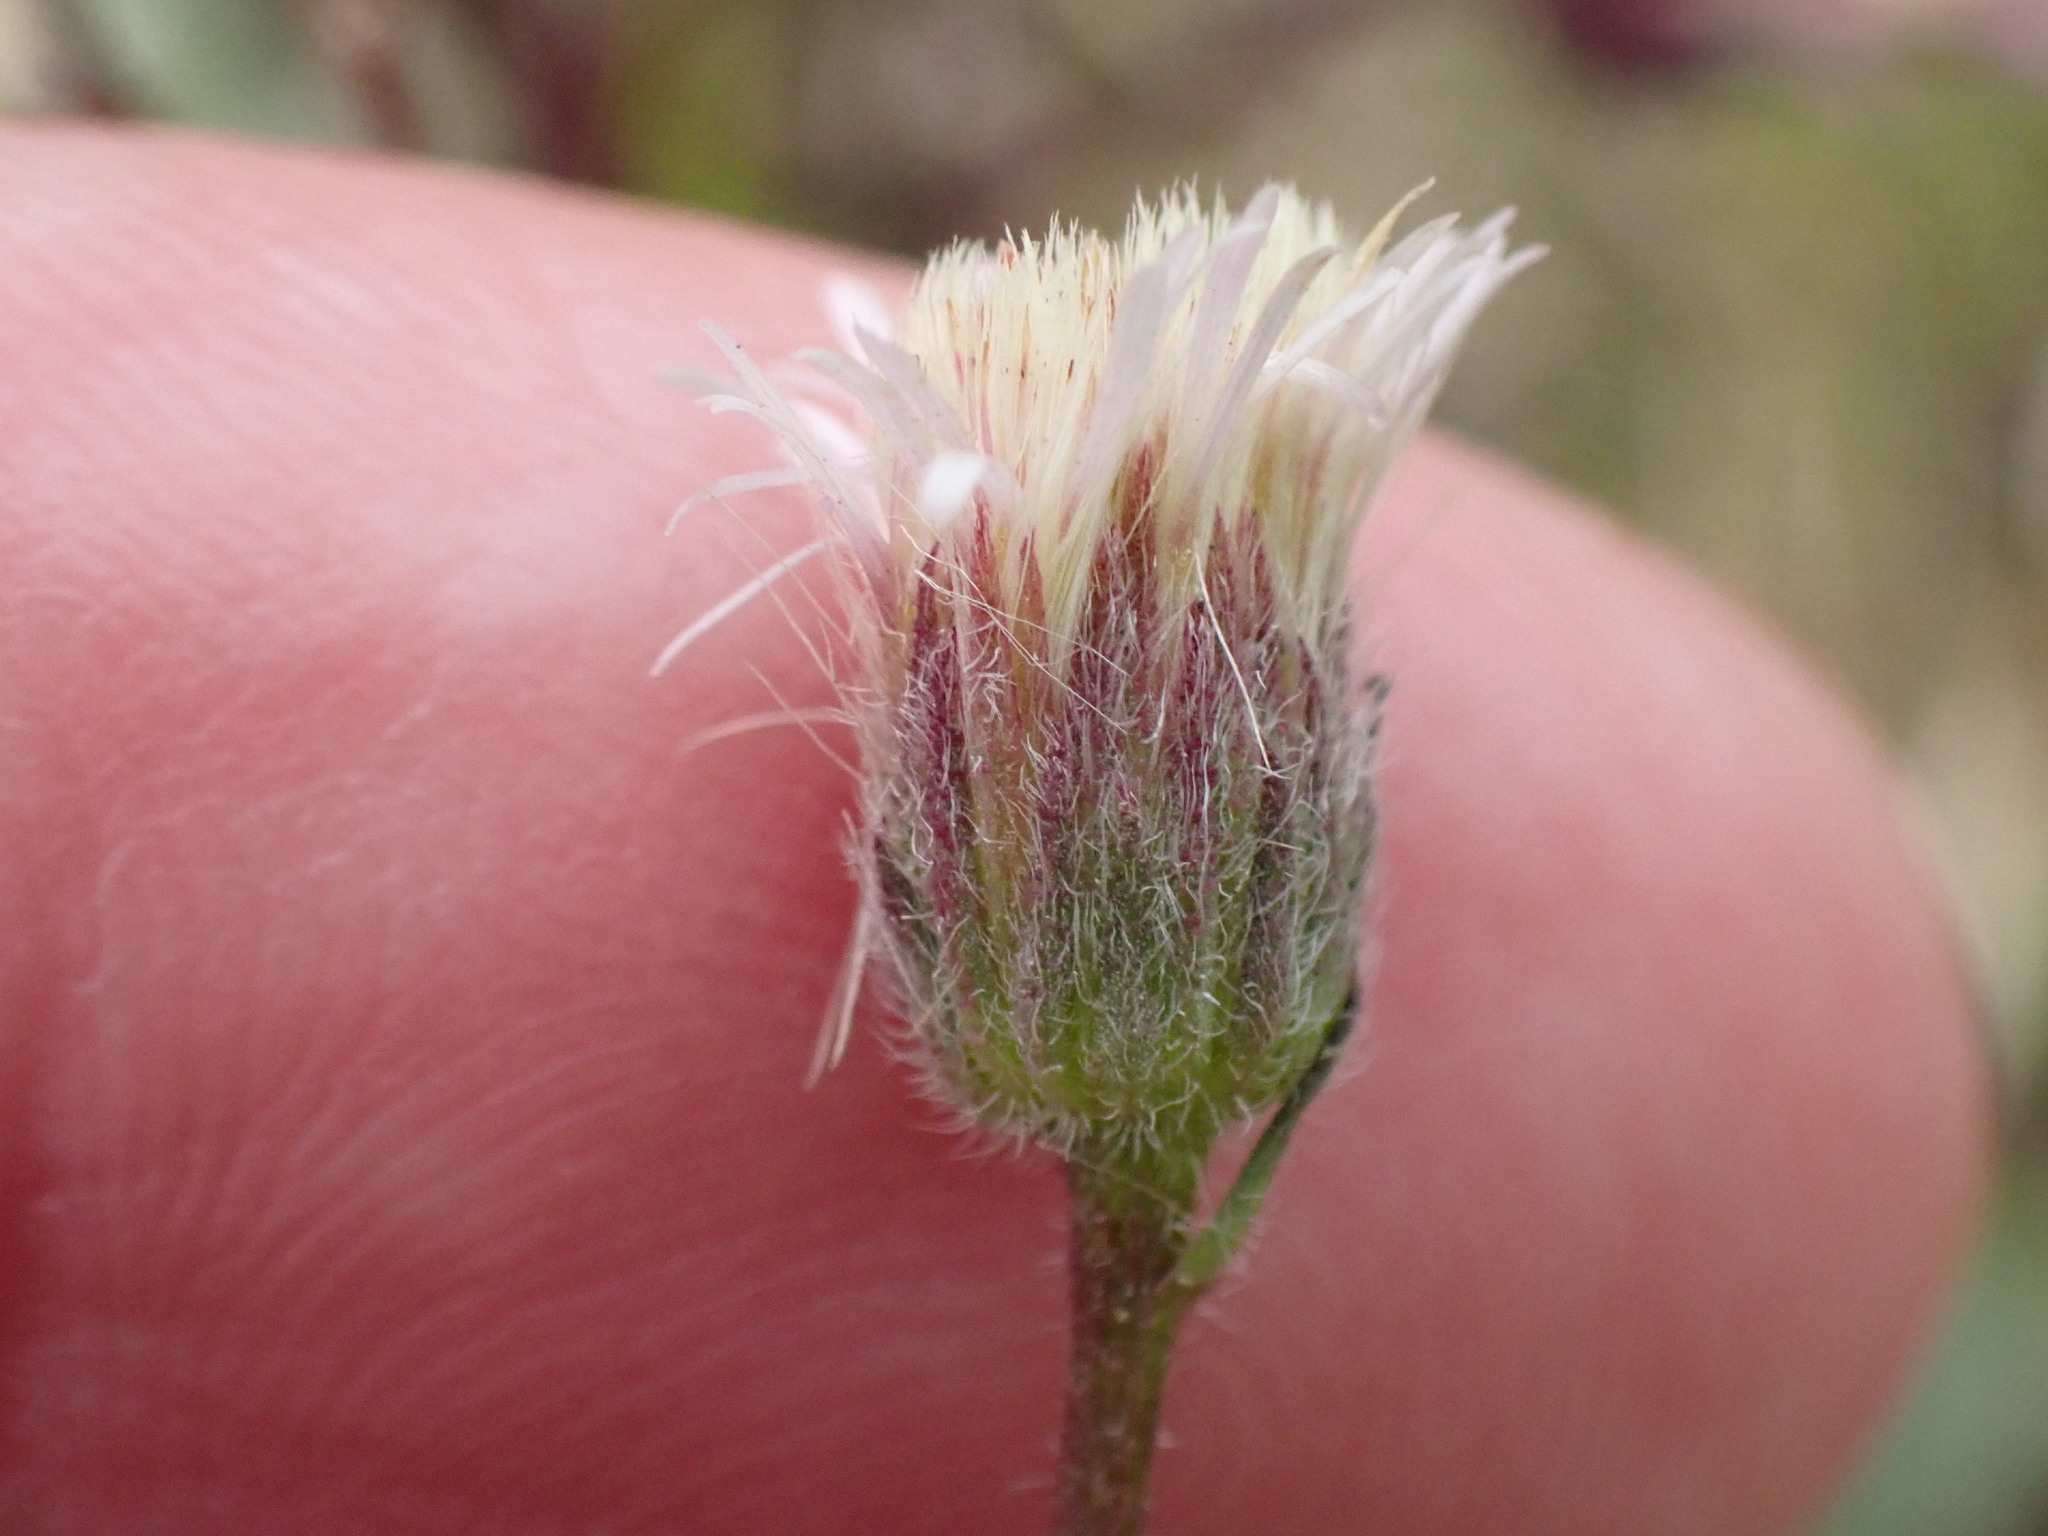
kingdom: Plantae
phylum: Tracheophyta
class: Magnoliopsida
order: Asterales
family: Asteraceae
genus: Erigeron
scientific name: Erigeron acris
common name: Blue fleabane
